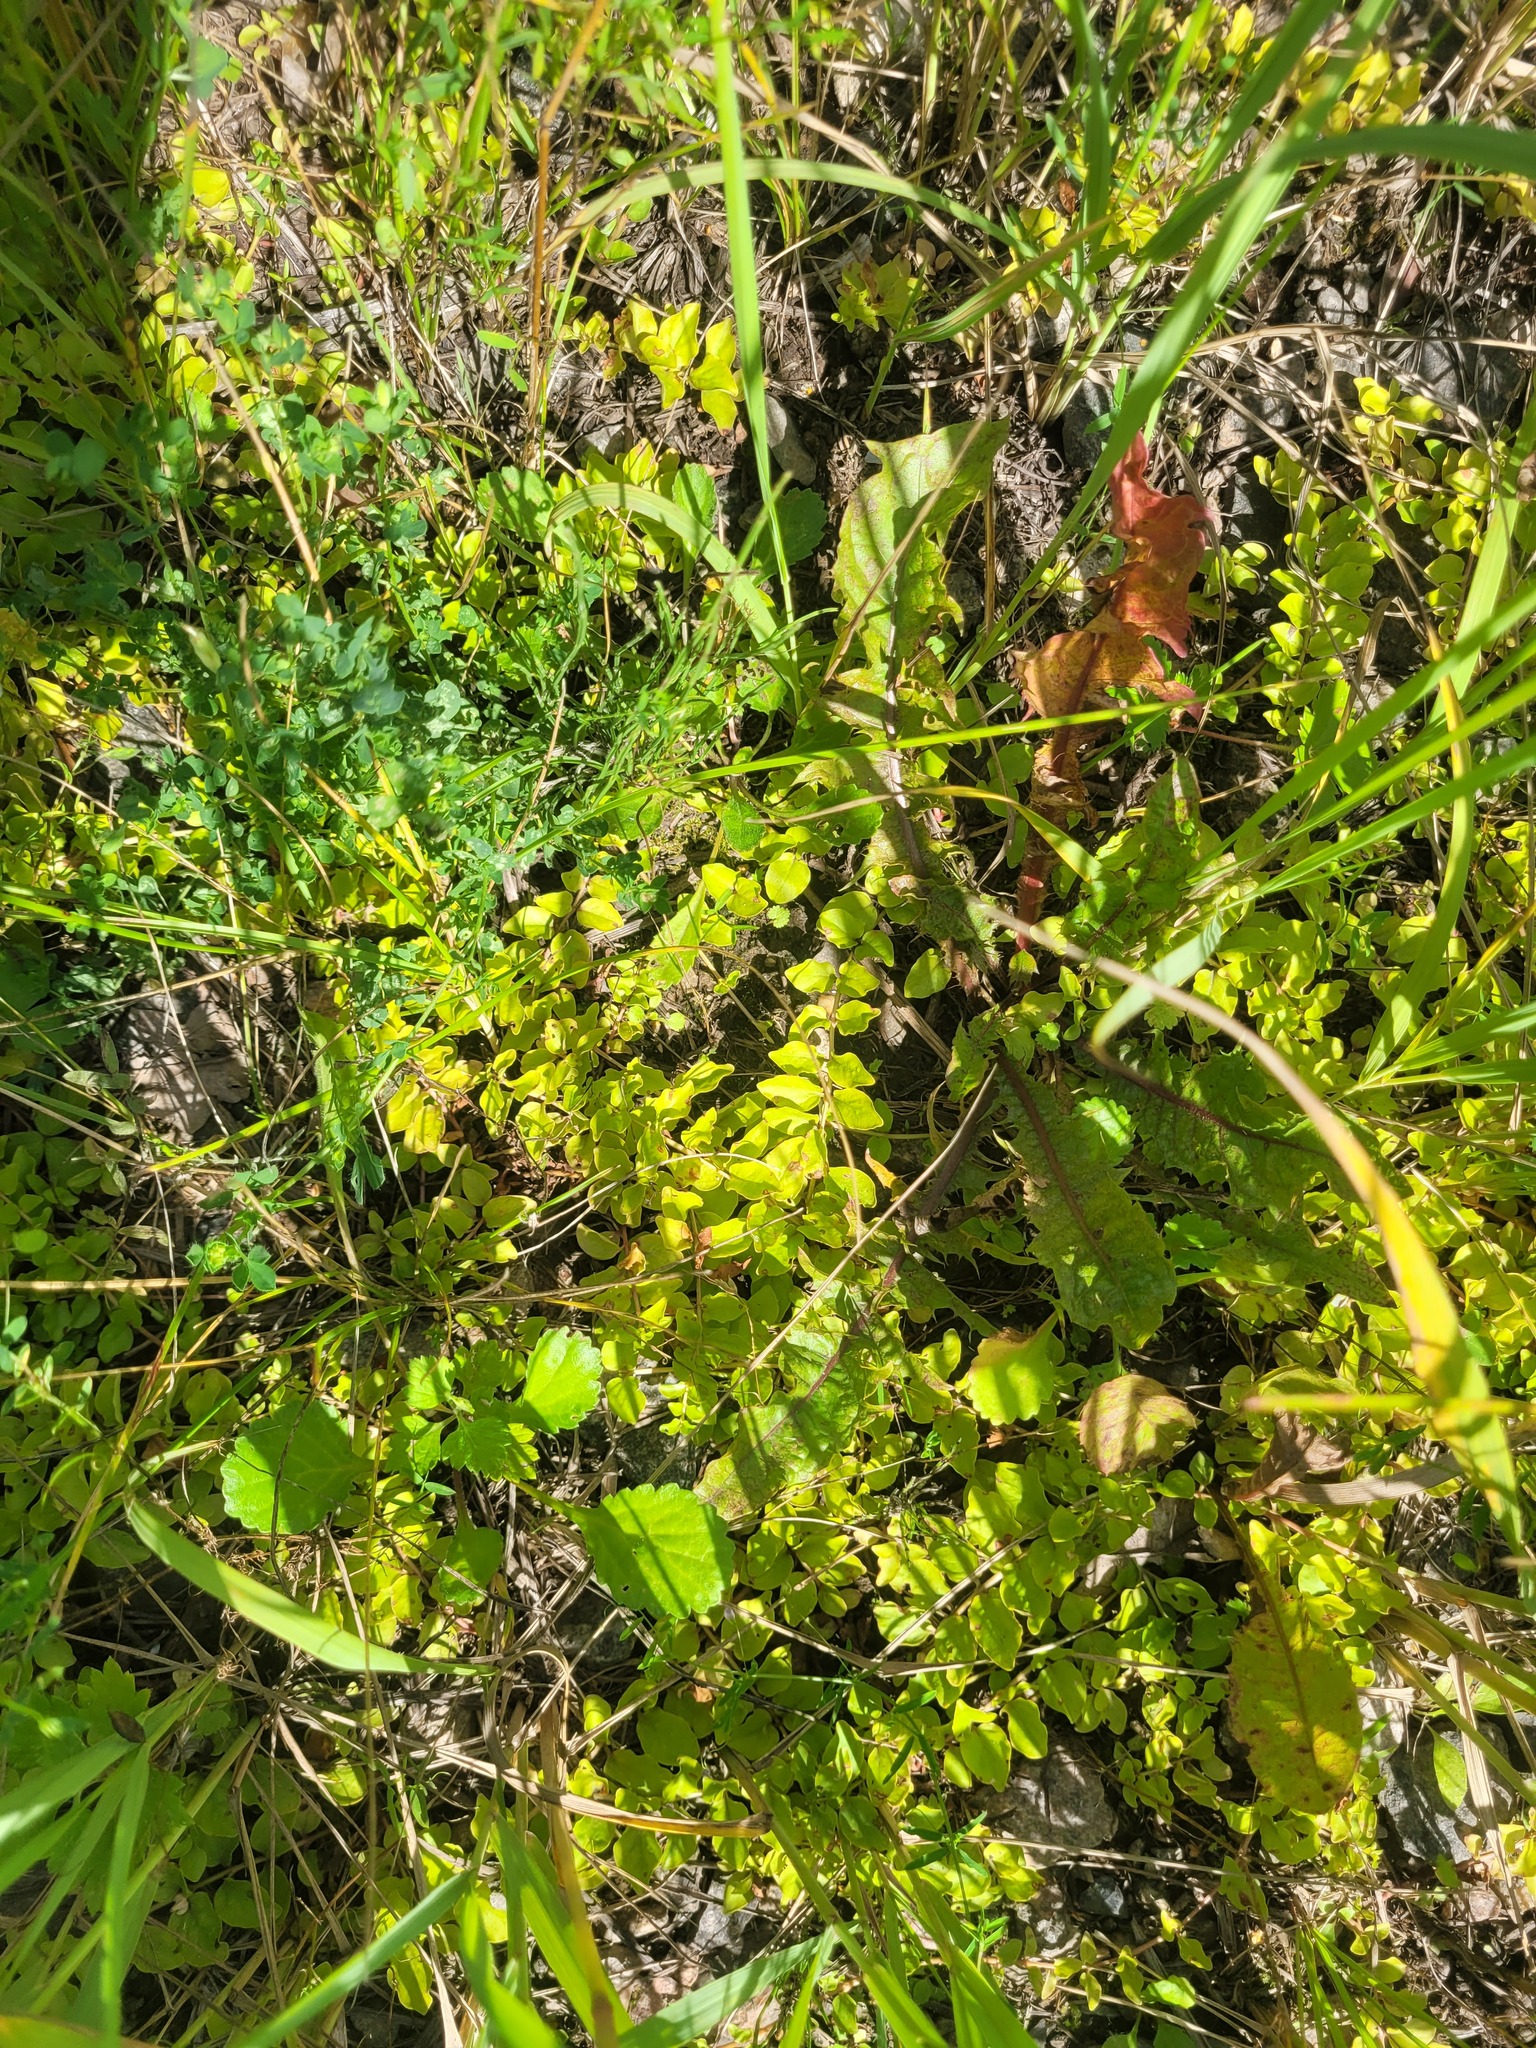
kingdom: Plantae
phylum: Tracheophyta
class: Magnoliopsida
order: Ericales
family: Primulaceae
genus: Lysimachia
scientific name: Lysimachia nummularia
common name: Moneywort
